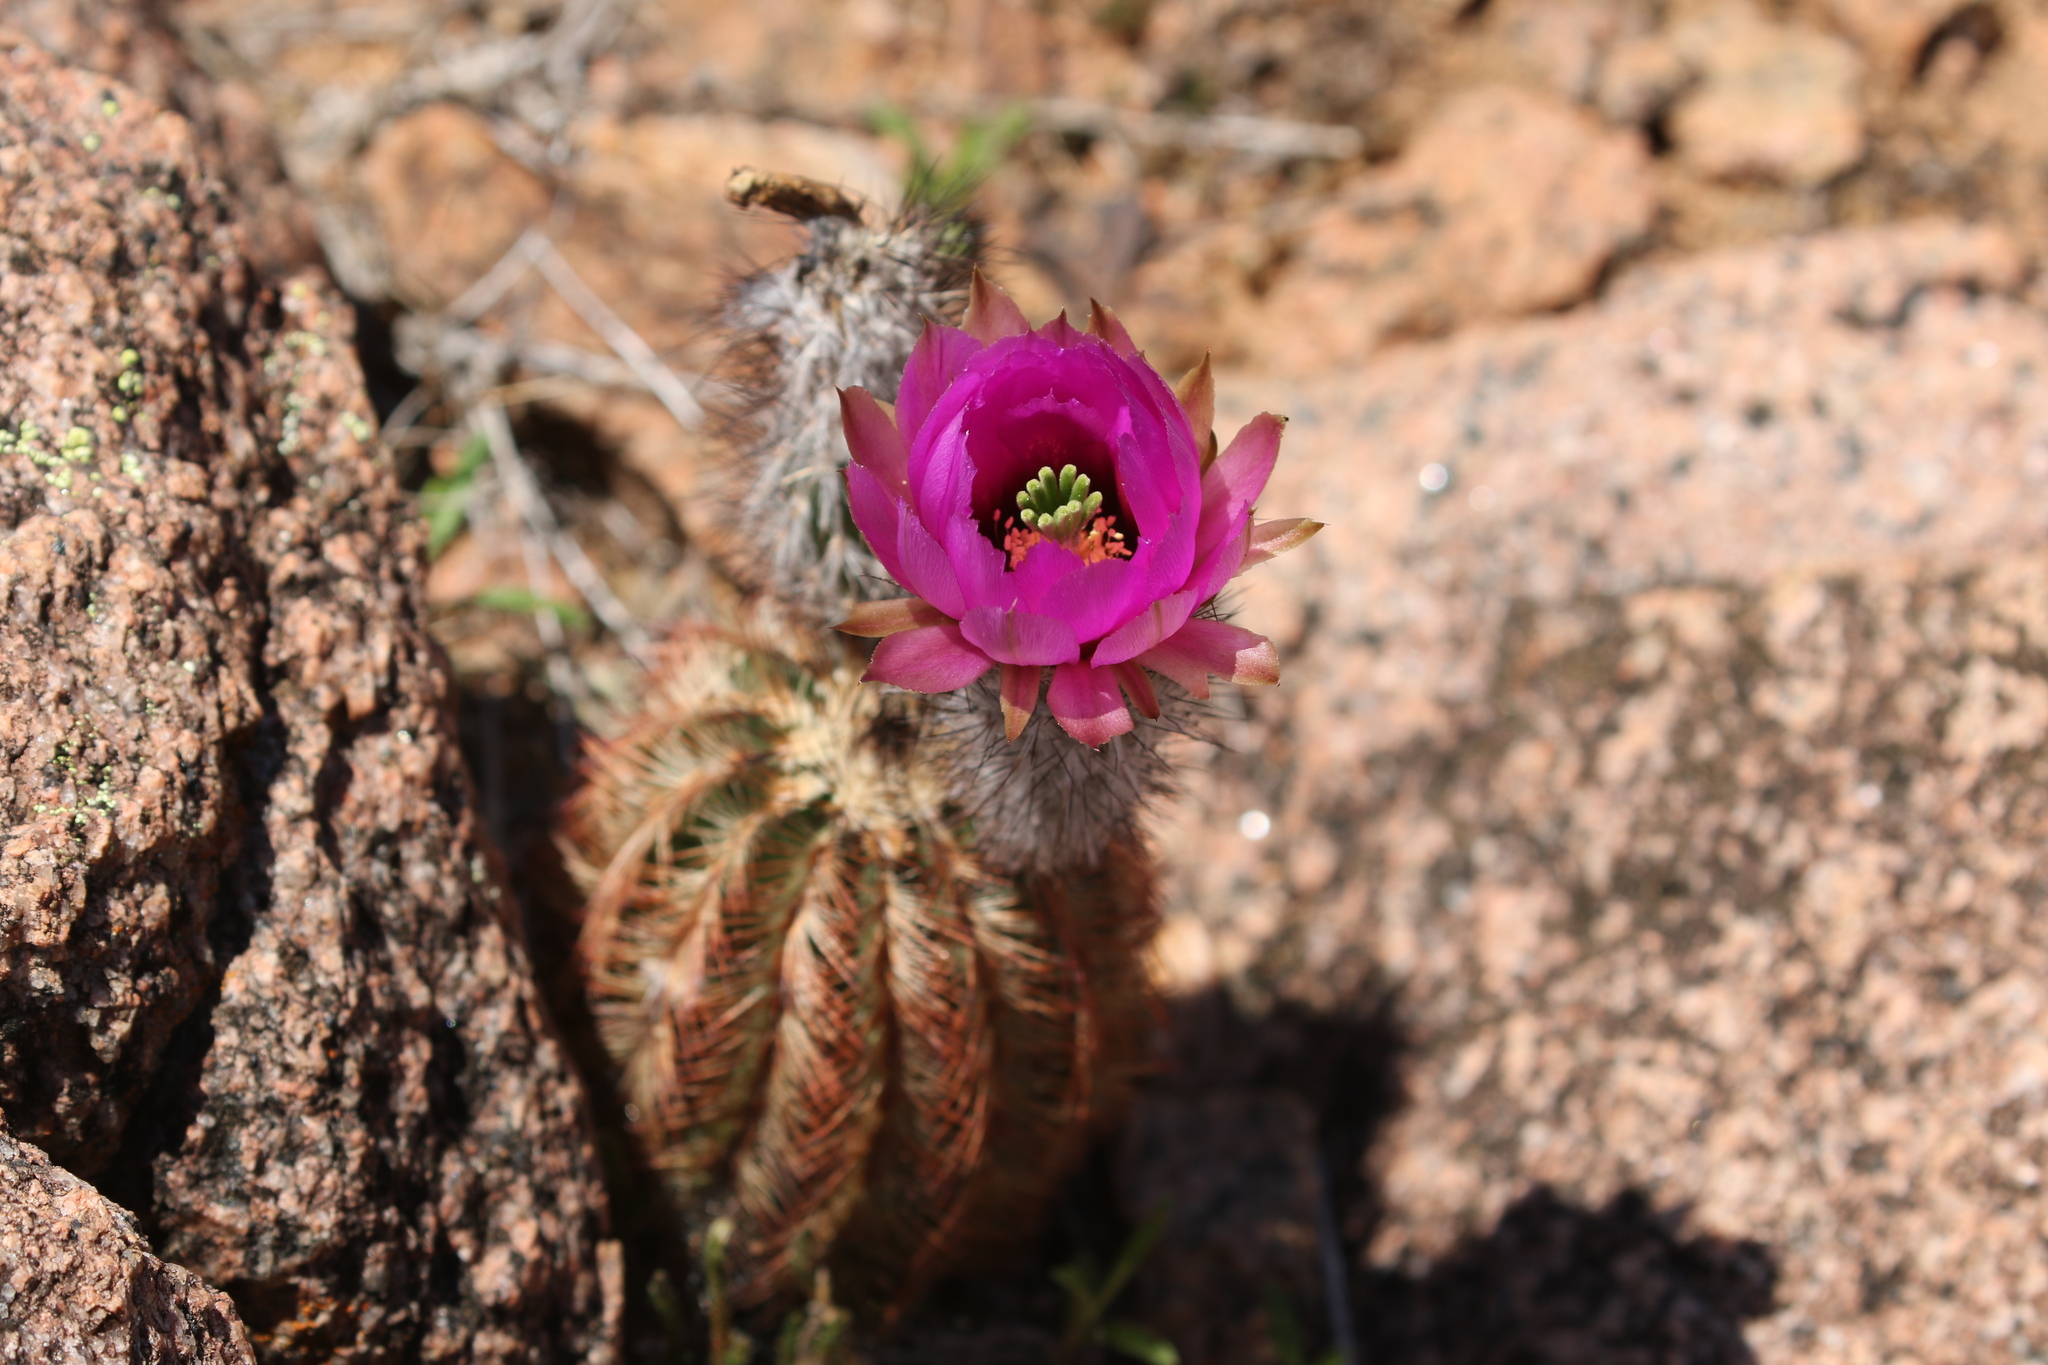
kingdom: Plantae
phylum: Tracheophyta
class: Magnoliopsida
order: Caryophyllales
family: Cactaceae
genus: Echinocereus
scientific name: Echinocereus reichenbachii
